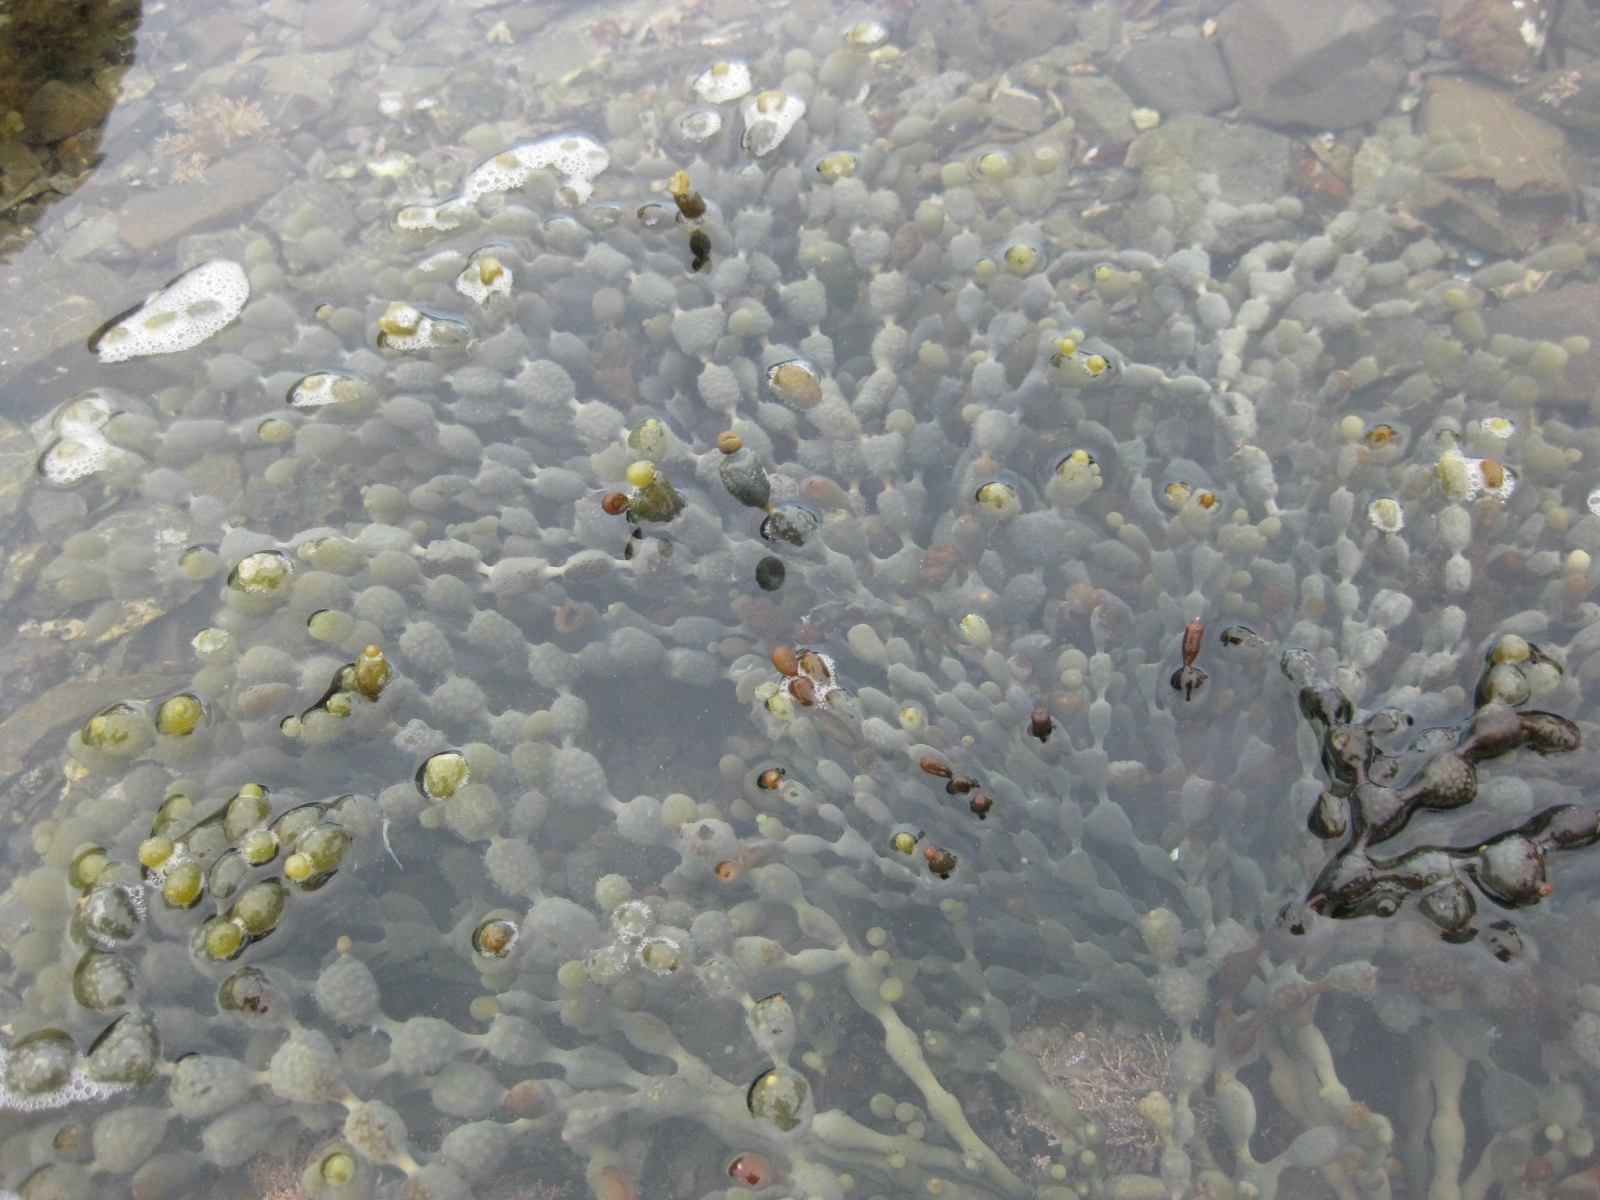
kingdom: Chromista
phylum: Ochrophyta
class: Phaeophyceae
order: Fucales
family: Hormosiraceae
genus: Hormosira
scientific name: Hormosira banksii
